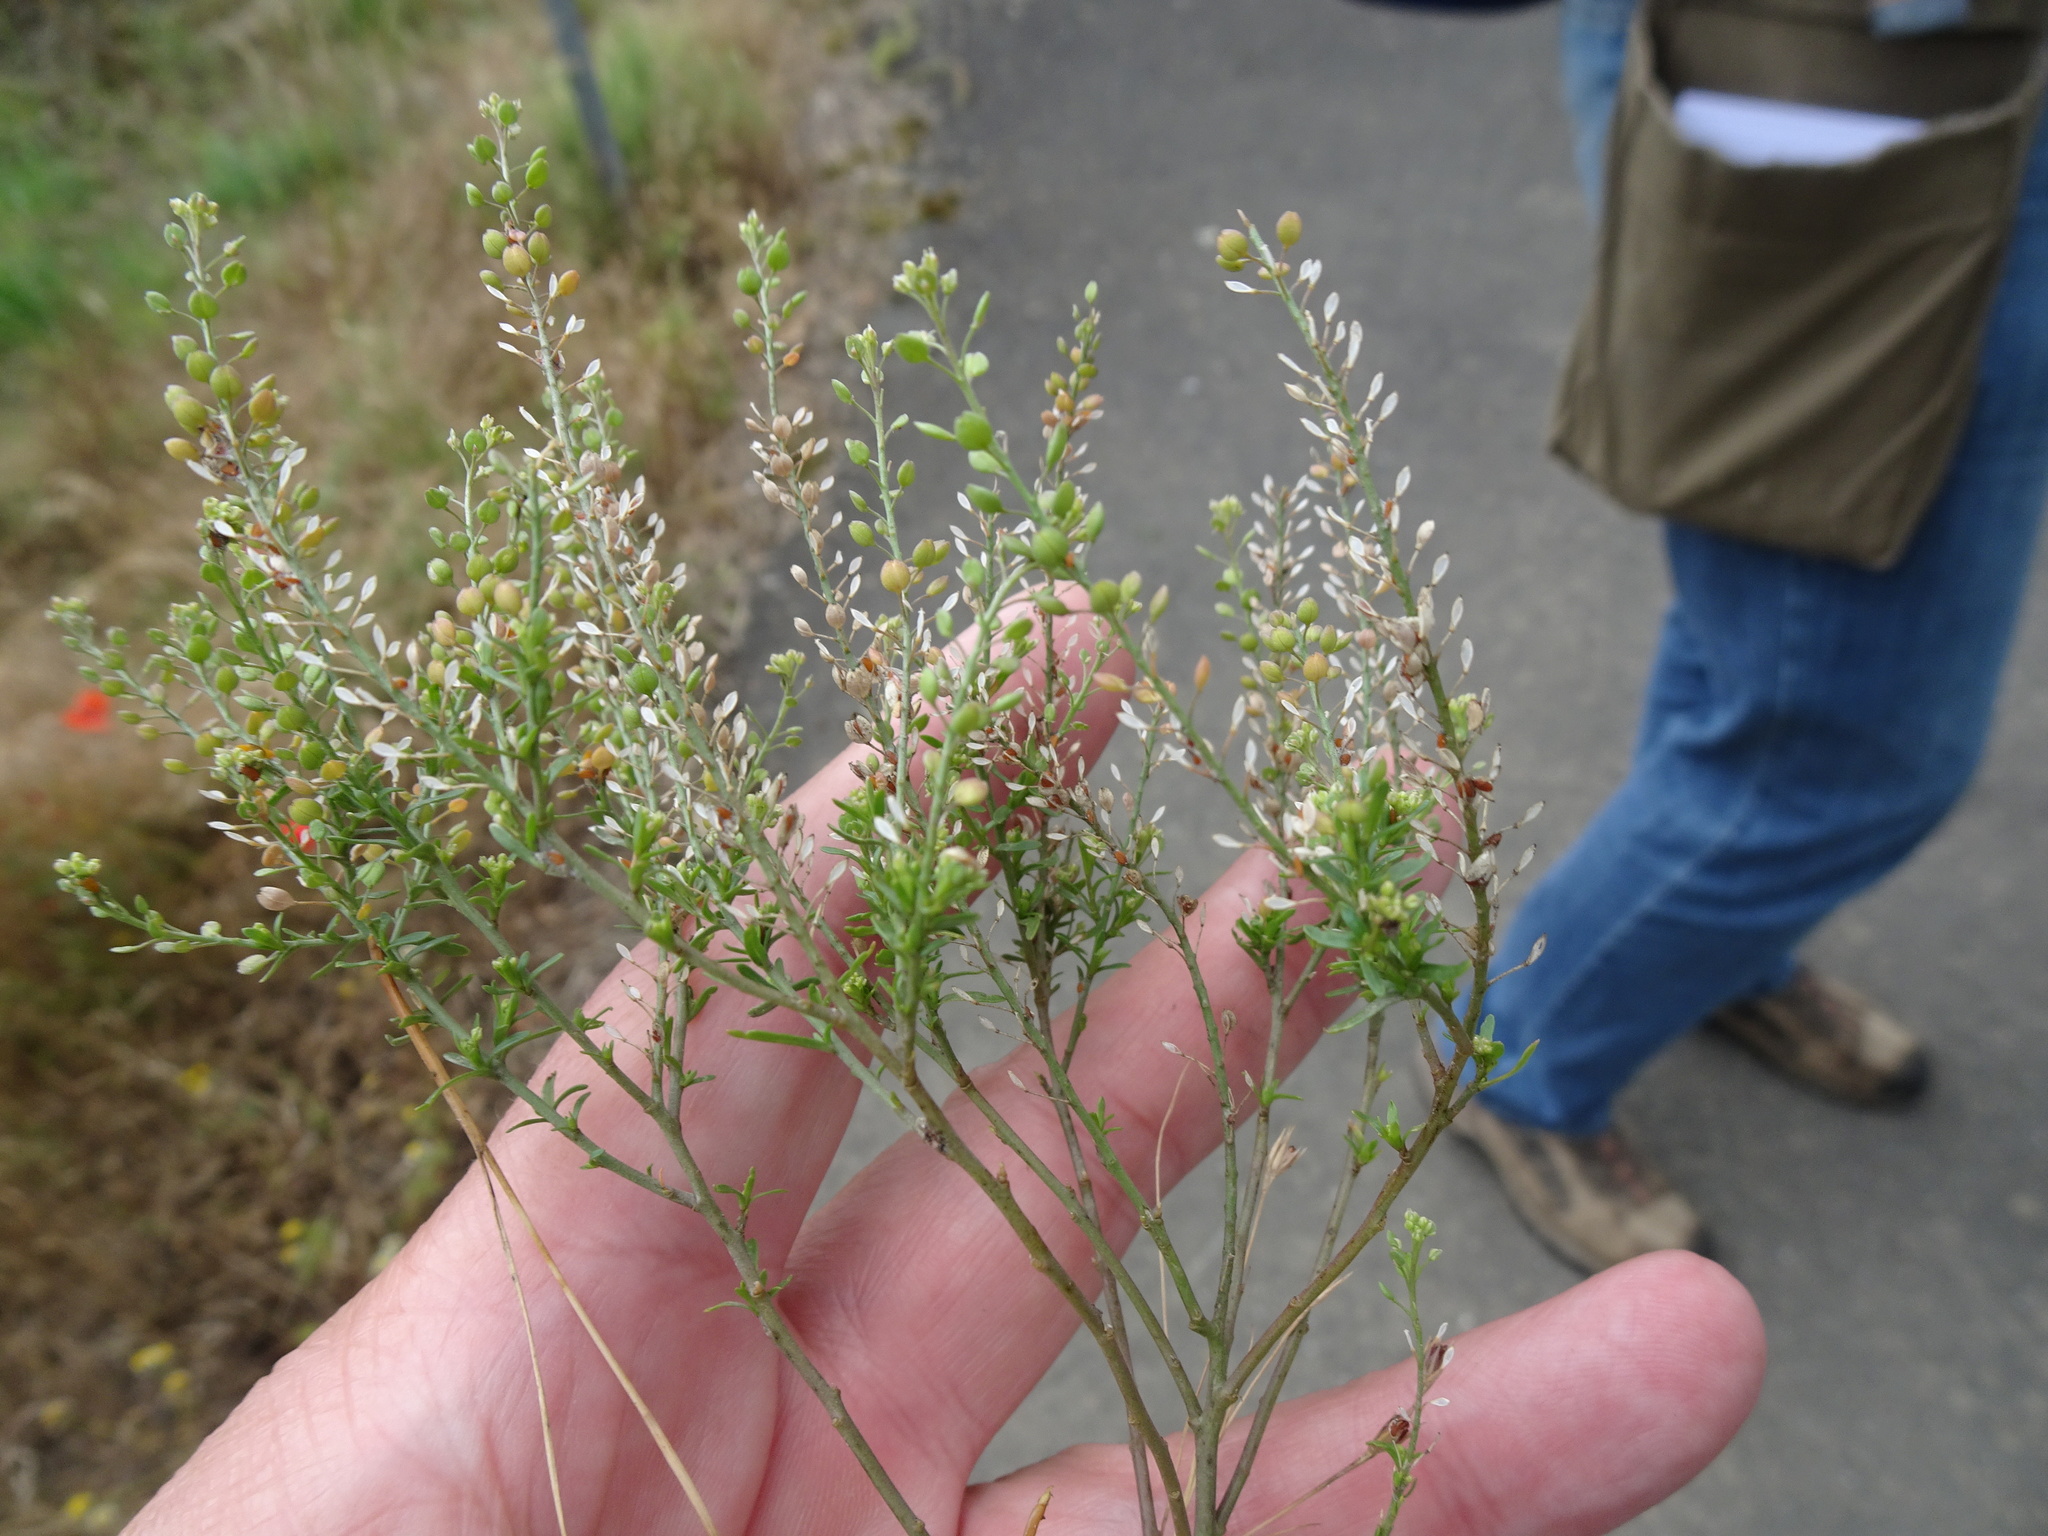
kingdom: Plantae
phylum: Tracheophyta
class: Magnoliopsida
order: Brassicales
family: Brassicaceae
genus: Lepidium
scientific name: Lepidium ruderale
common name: Narrow-leaved pepperwort
